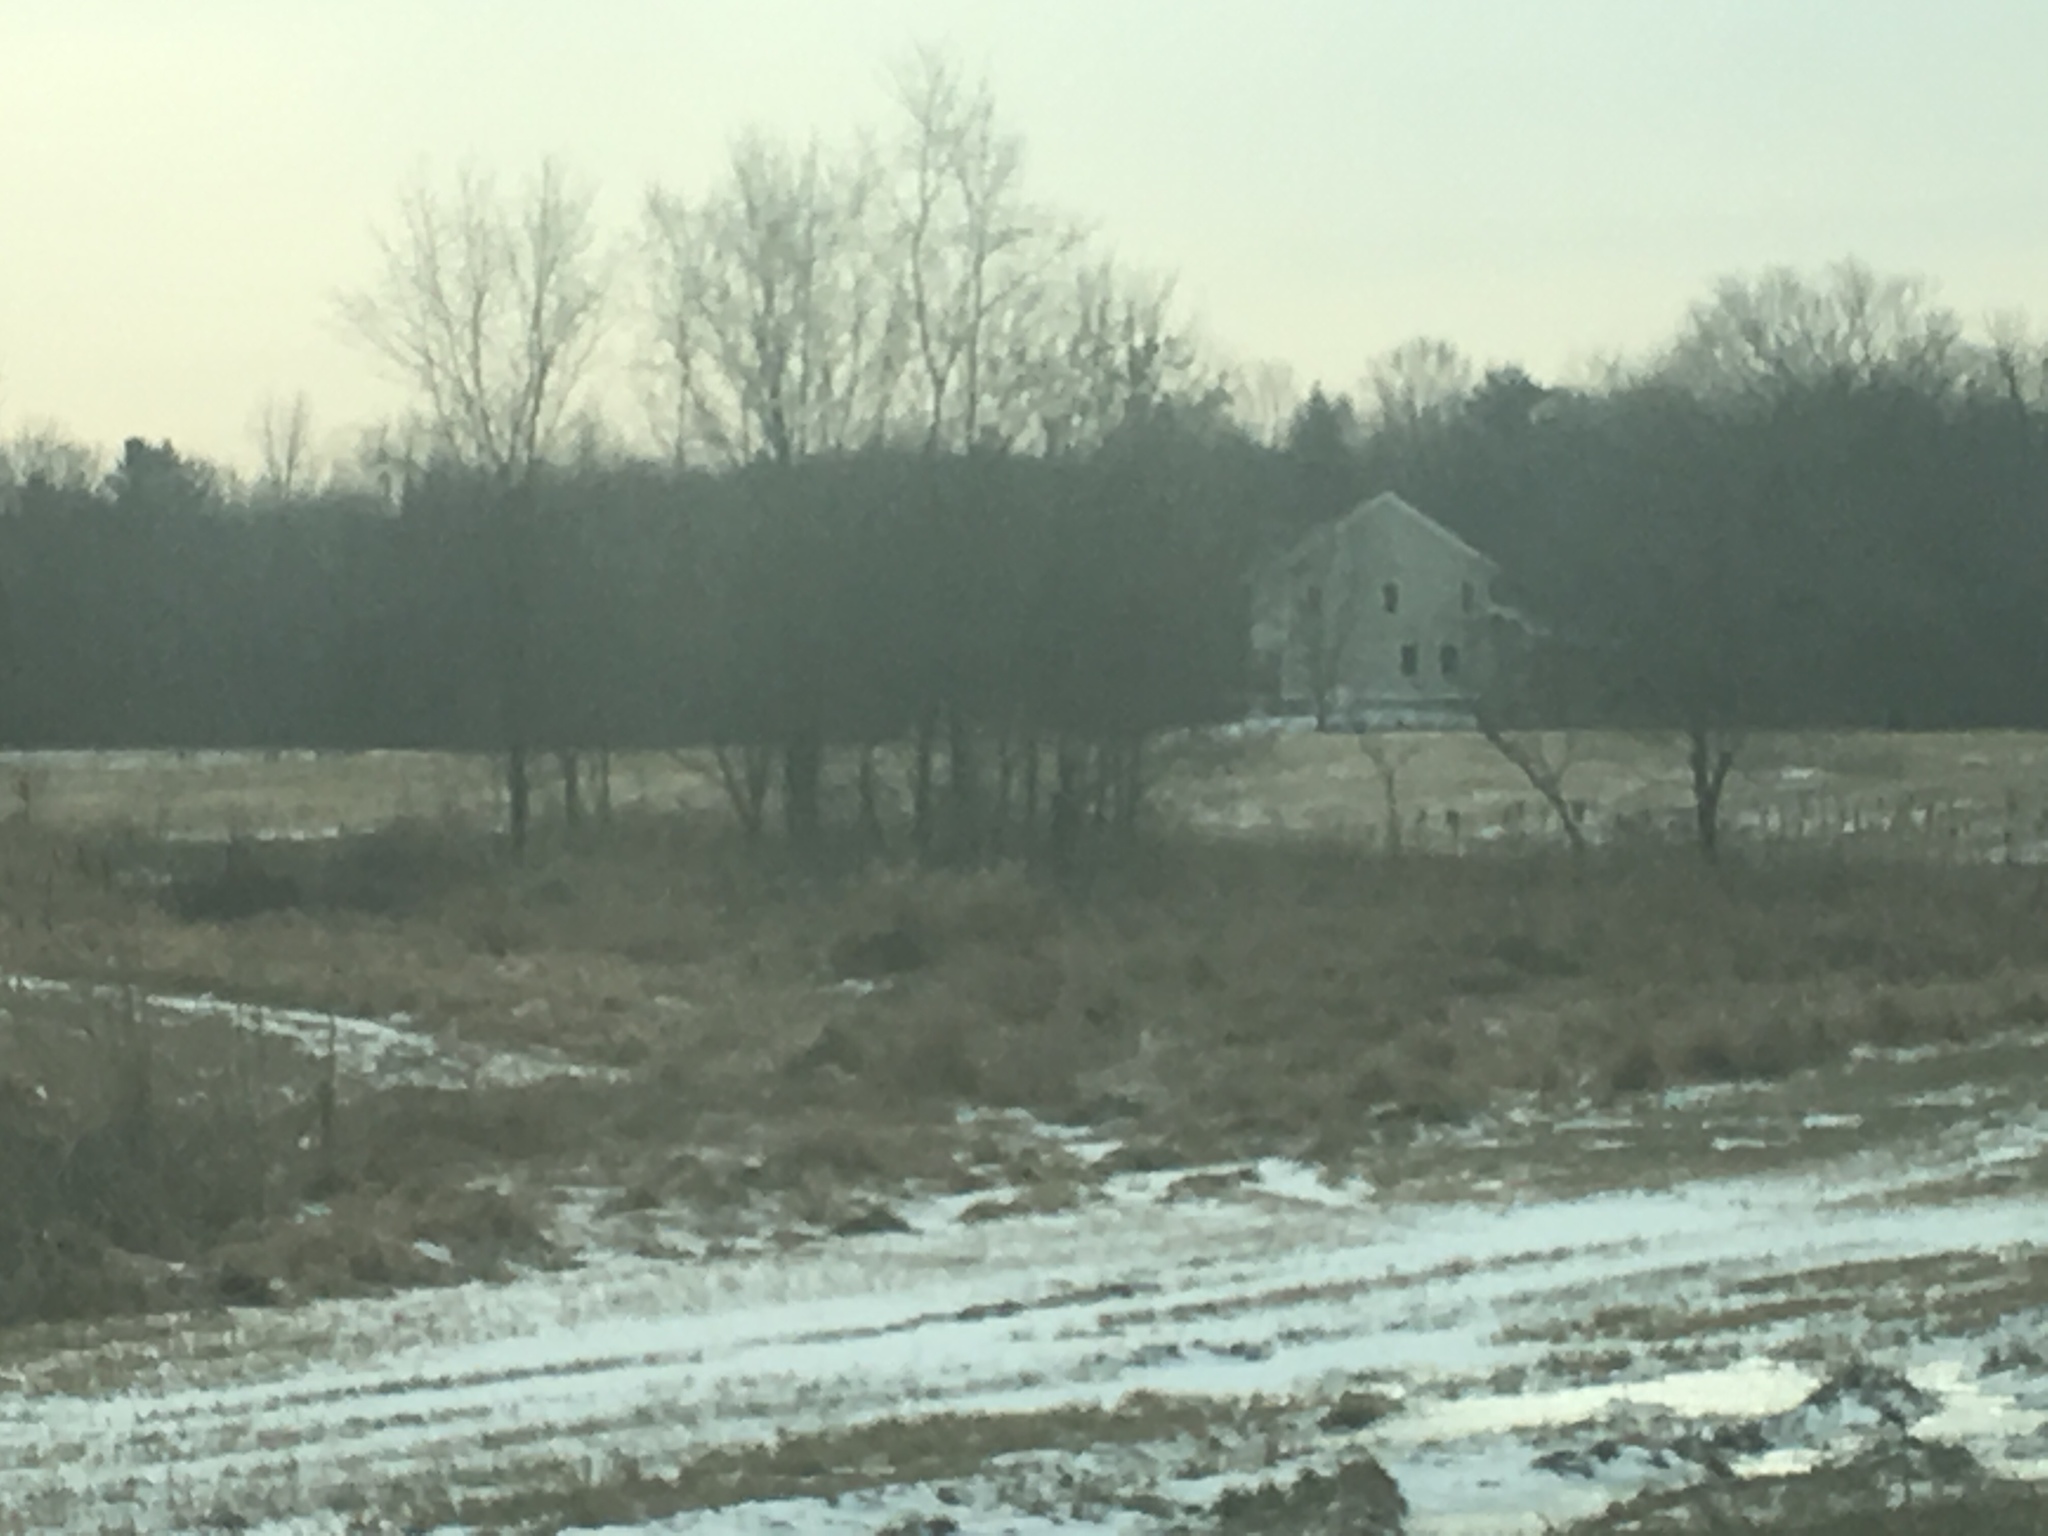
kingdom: Plantae
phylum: Tracheophyta
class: Liliopsida
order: Poales
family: Typhaceae
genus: Typha
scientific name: Typha
